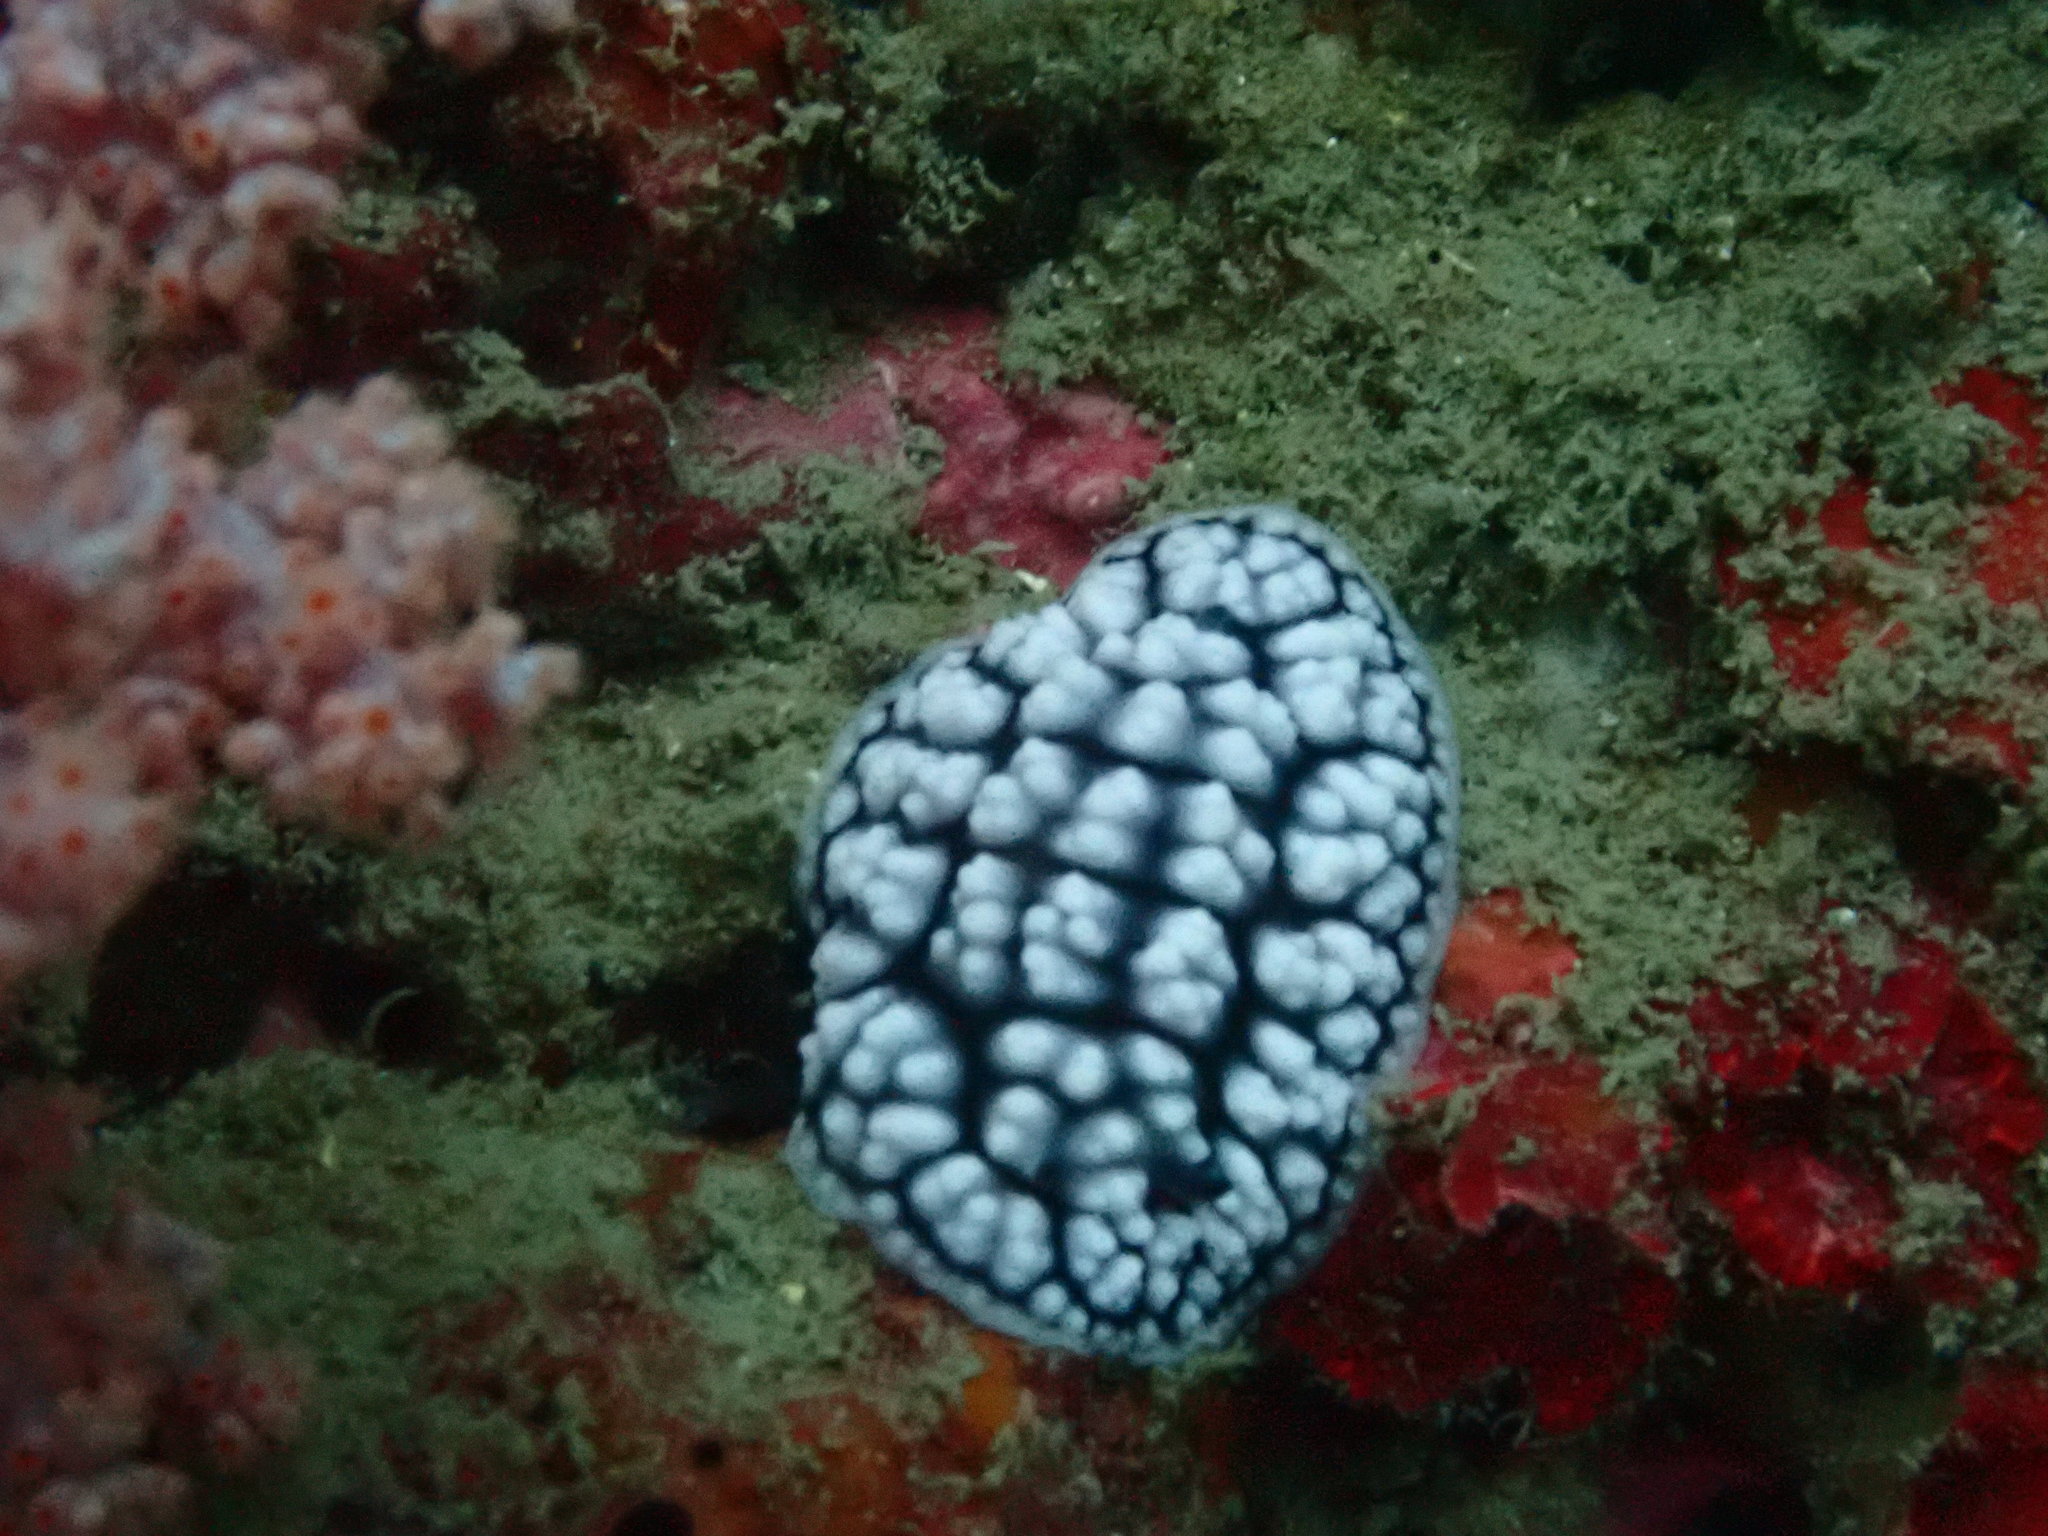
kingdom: Animalia
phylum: Mollusca
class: Gastropoda
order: Nudibranchia
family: Phyllidiidae
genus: Phyllidiella
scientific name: Phyllidiella pustulosa
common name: Pustular phyllidia
